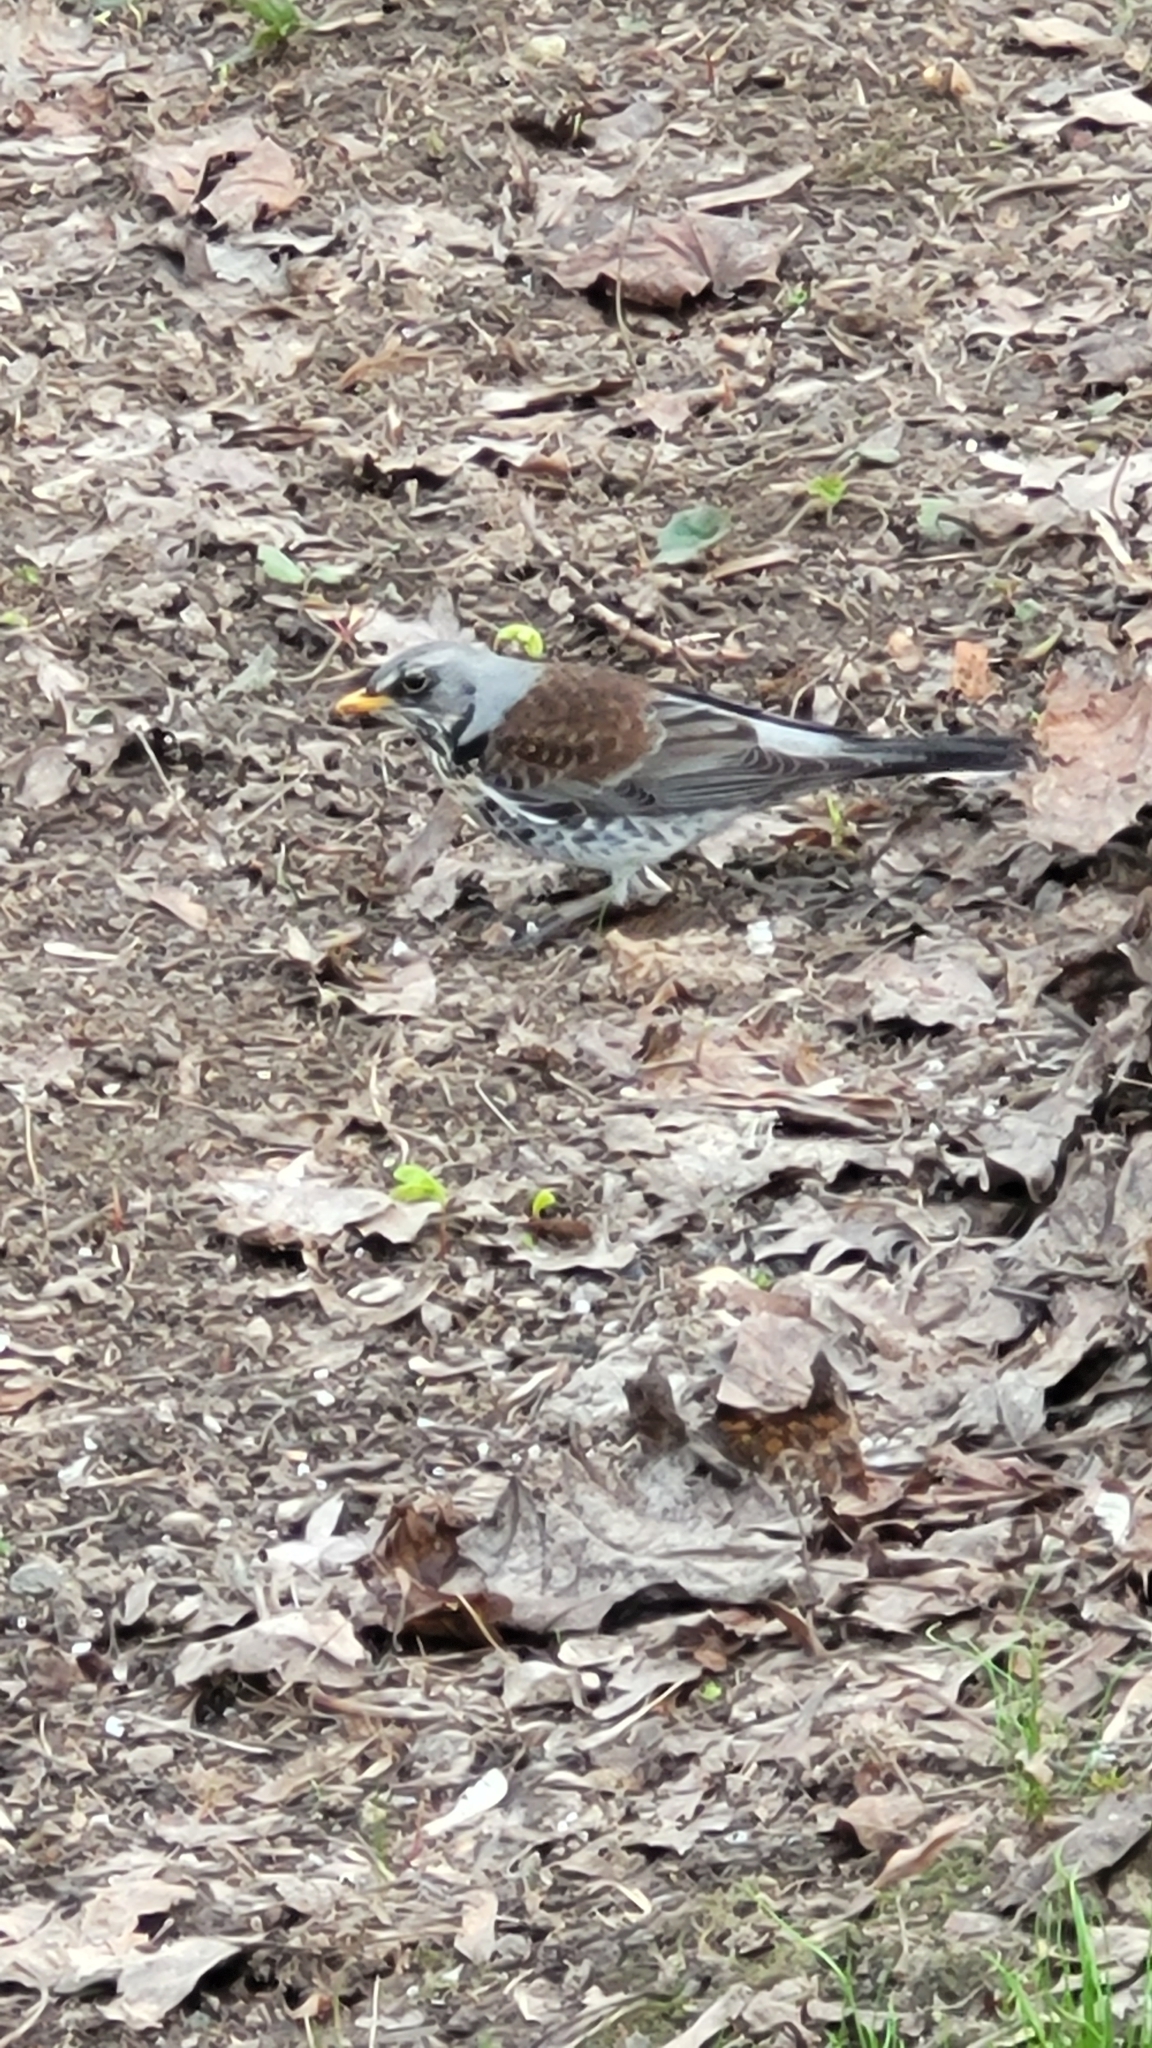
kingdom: Animalia
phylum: Chordata
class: Aves
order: Passeriformes
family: Turdidae
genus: Turdus
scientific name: Turdus pilaris
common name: Fieldfare
